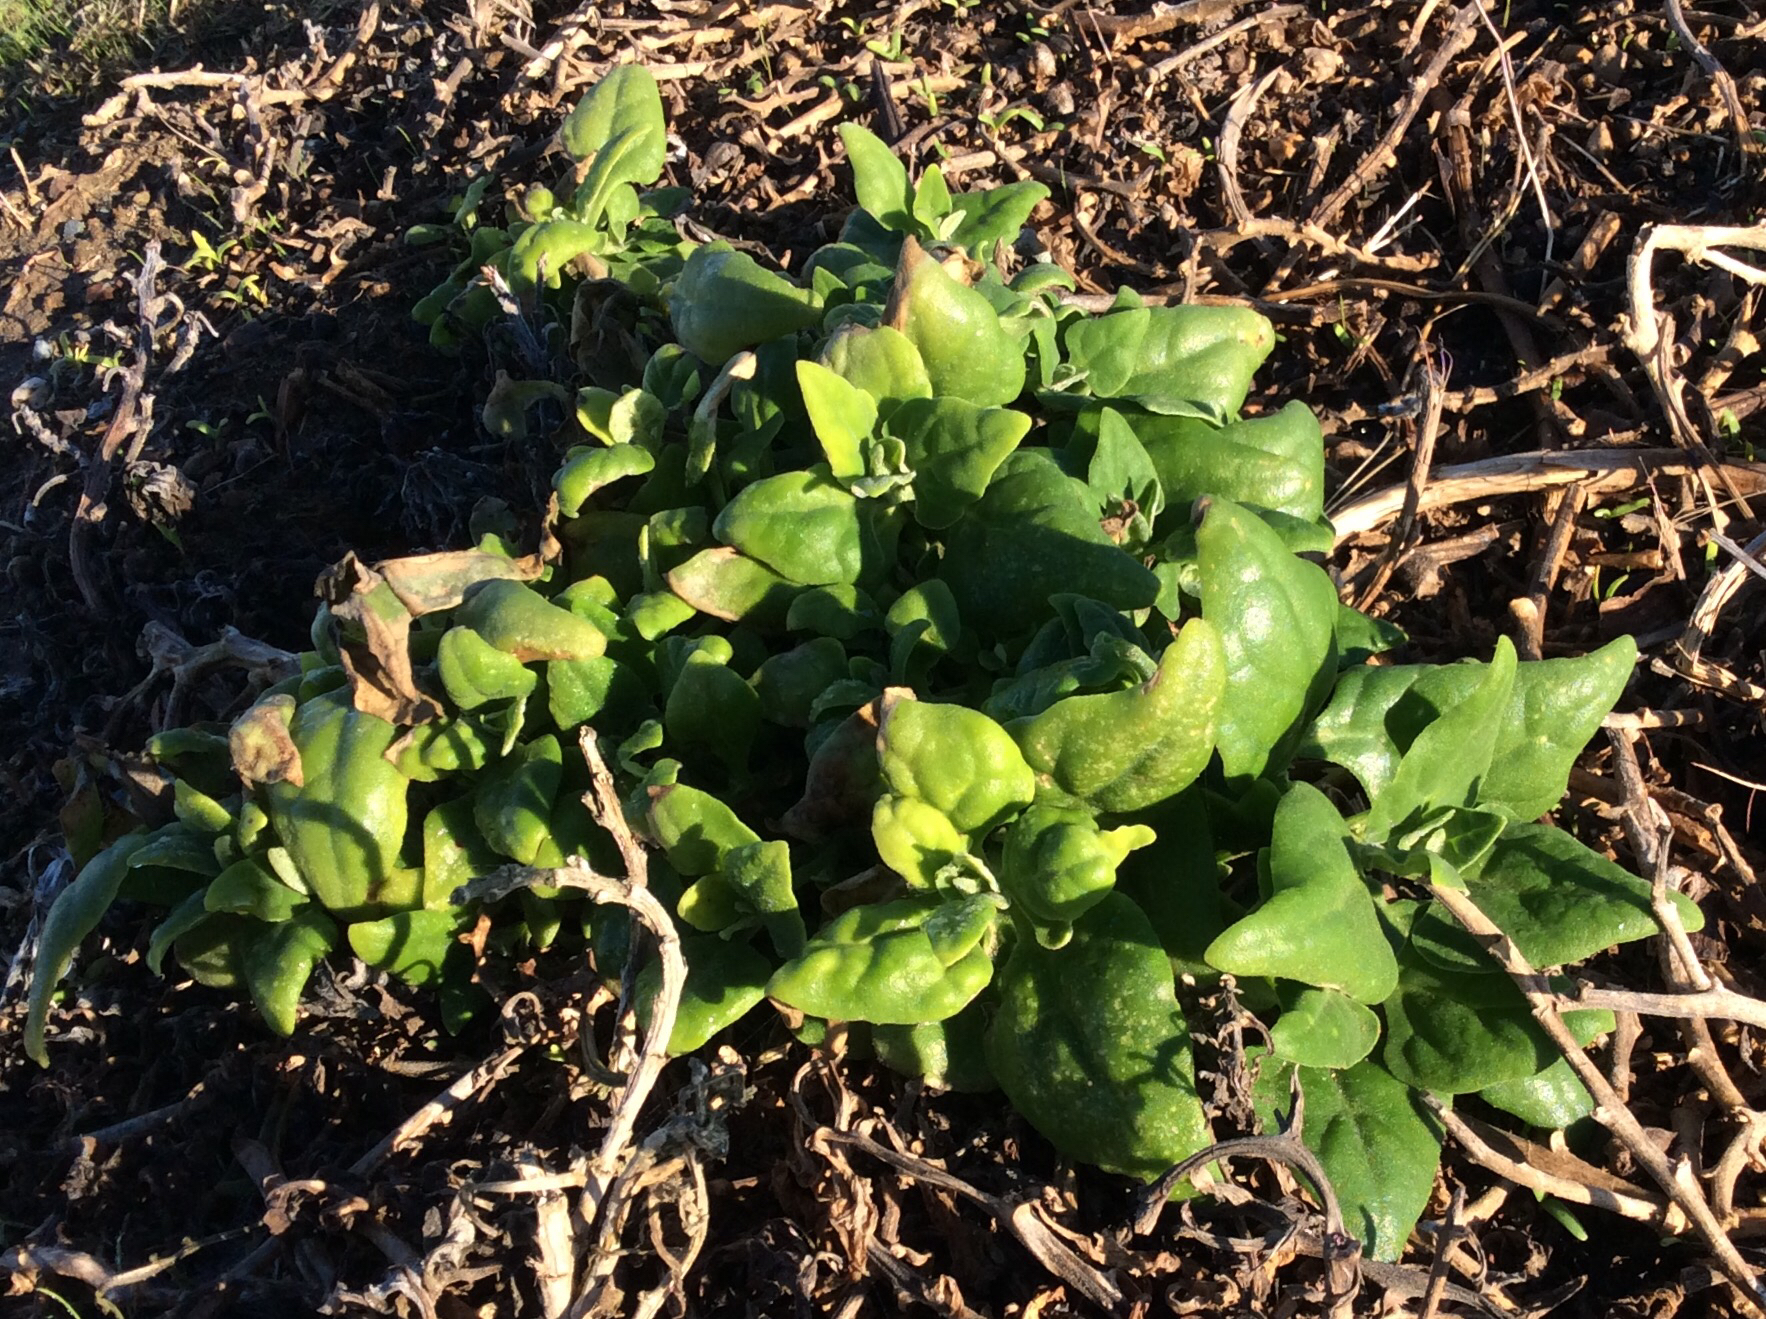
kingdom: Plantae
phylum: Tracheophyta
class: Magnoliopsida
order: Caryophyllales
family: Aizoaceae
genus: Tetragonia
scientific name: Tetragonia tetragonoides
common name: New zealand-spinach
